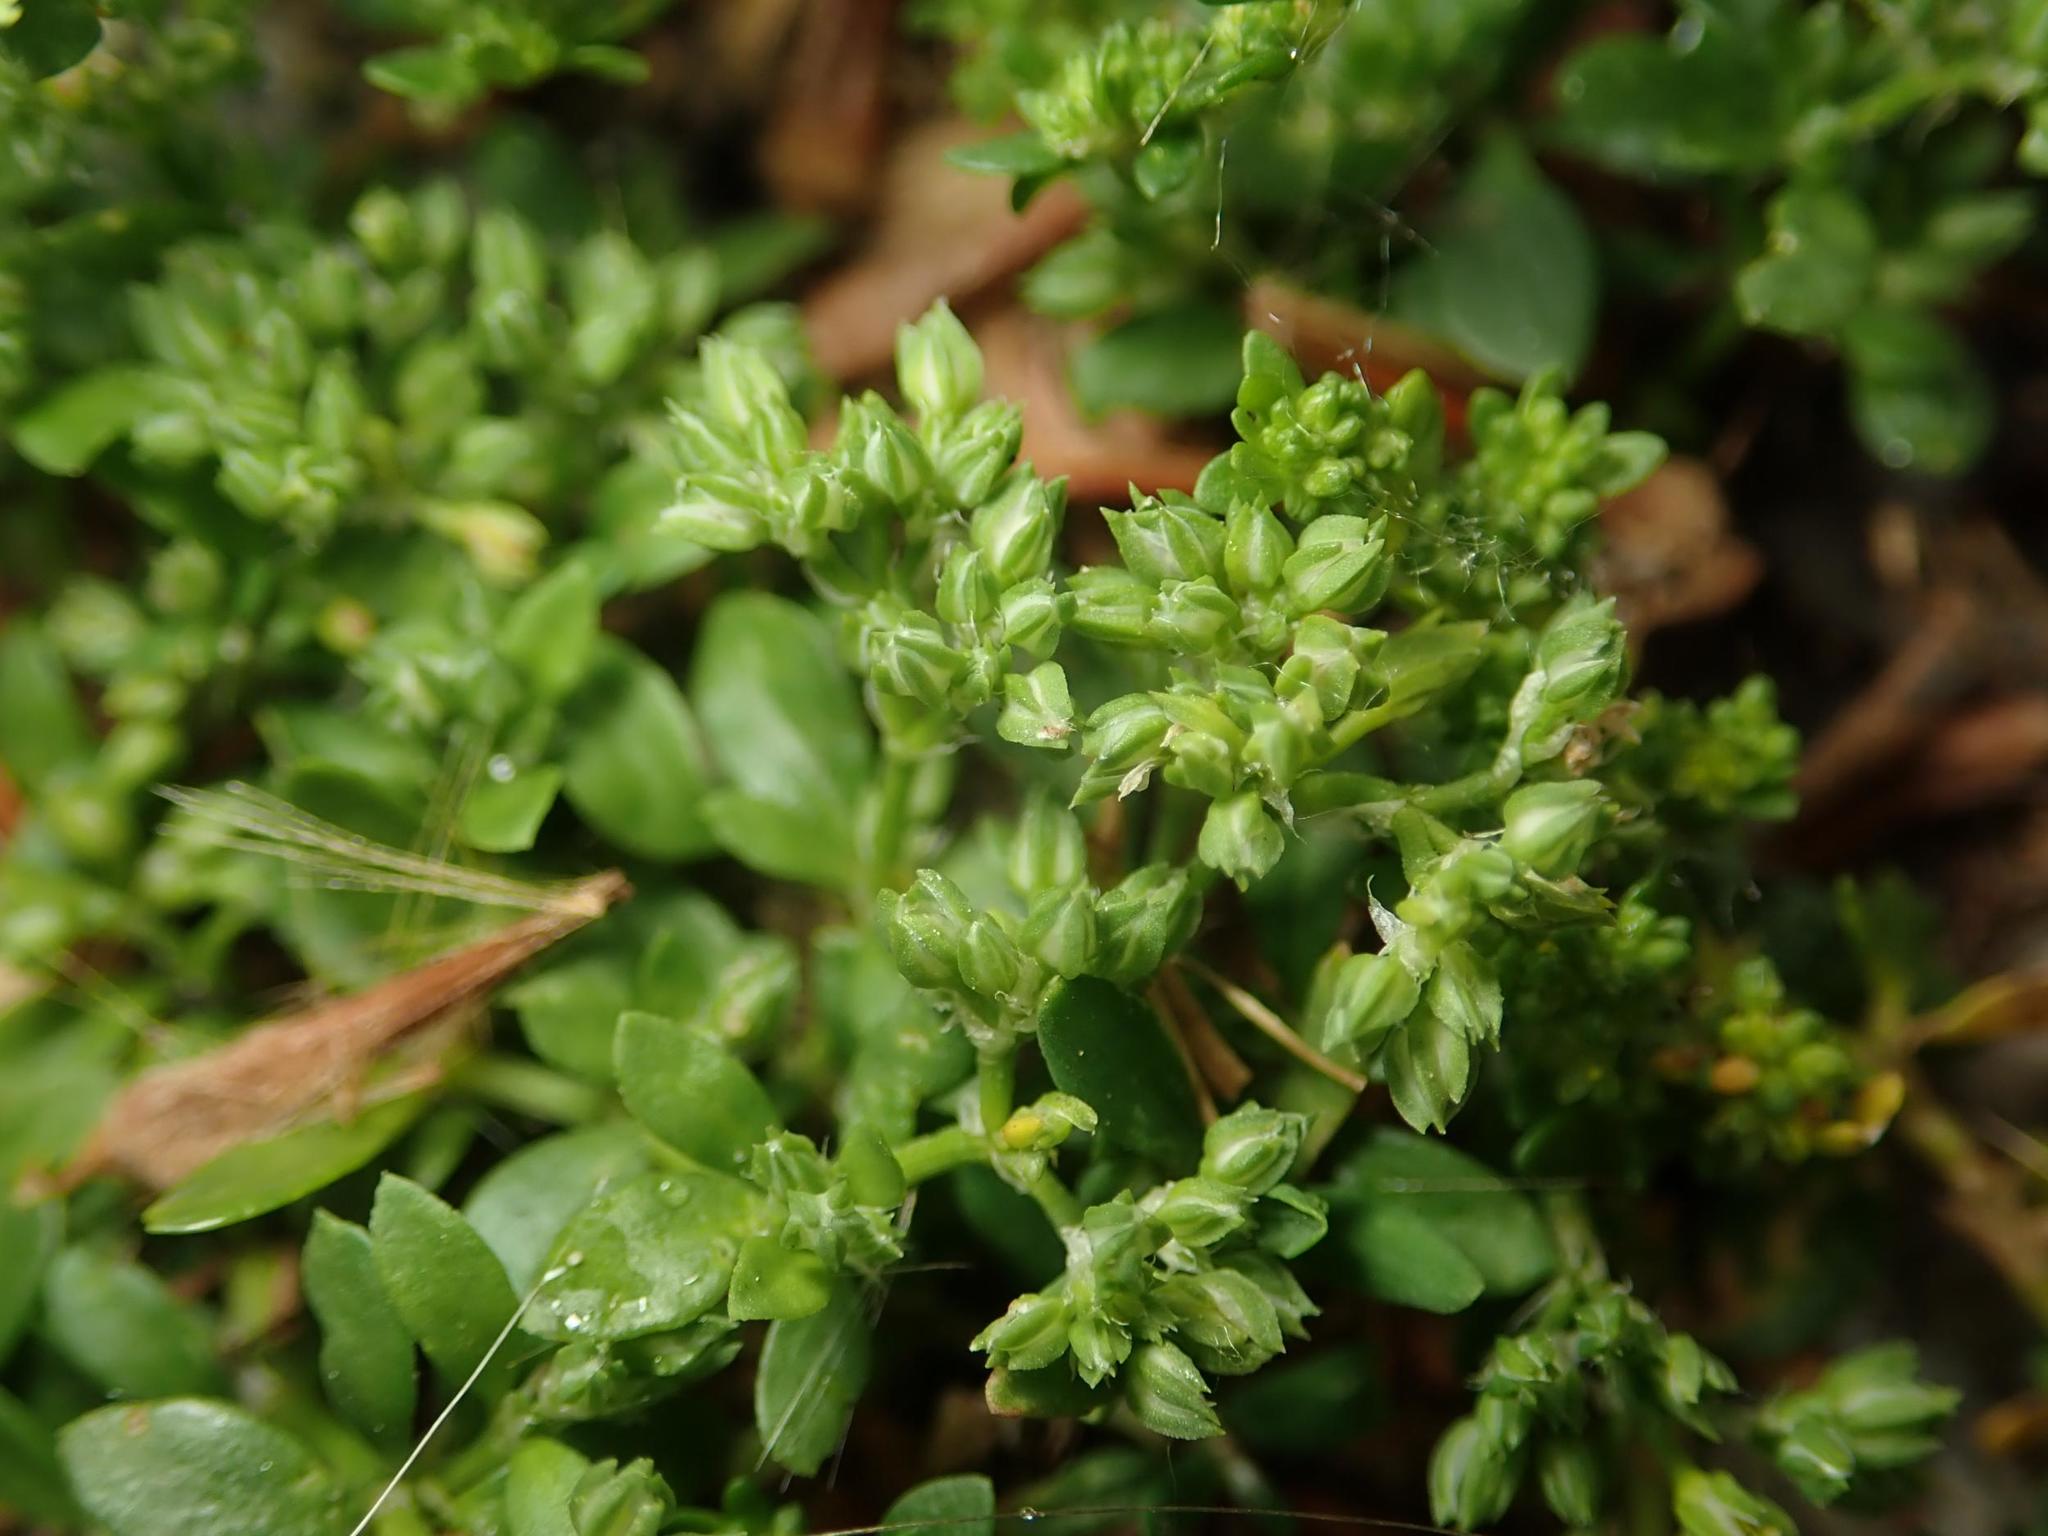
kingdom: Plantae
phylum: Tracheophyta
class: Magnoliopsida
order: Caryophyllales
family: Caryophyllaceae
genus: Polycarpon
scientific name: Polycarpon tetraphyllum
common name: Four-leaved all-seed
